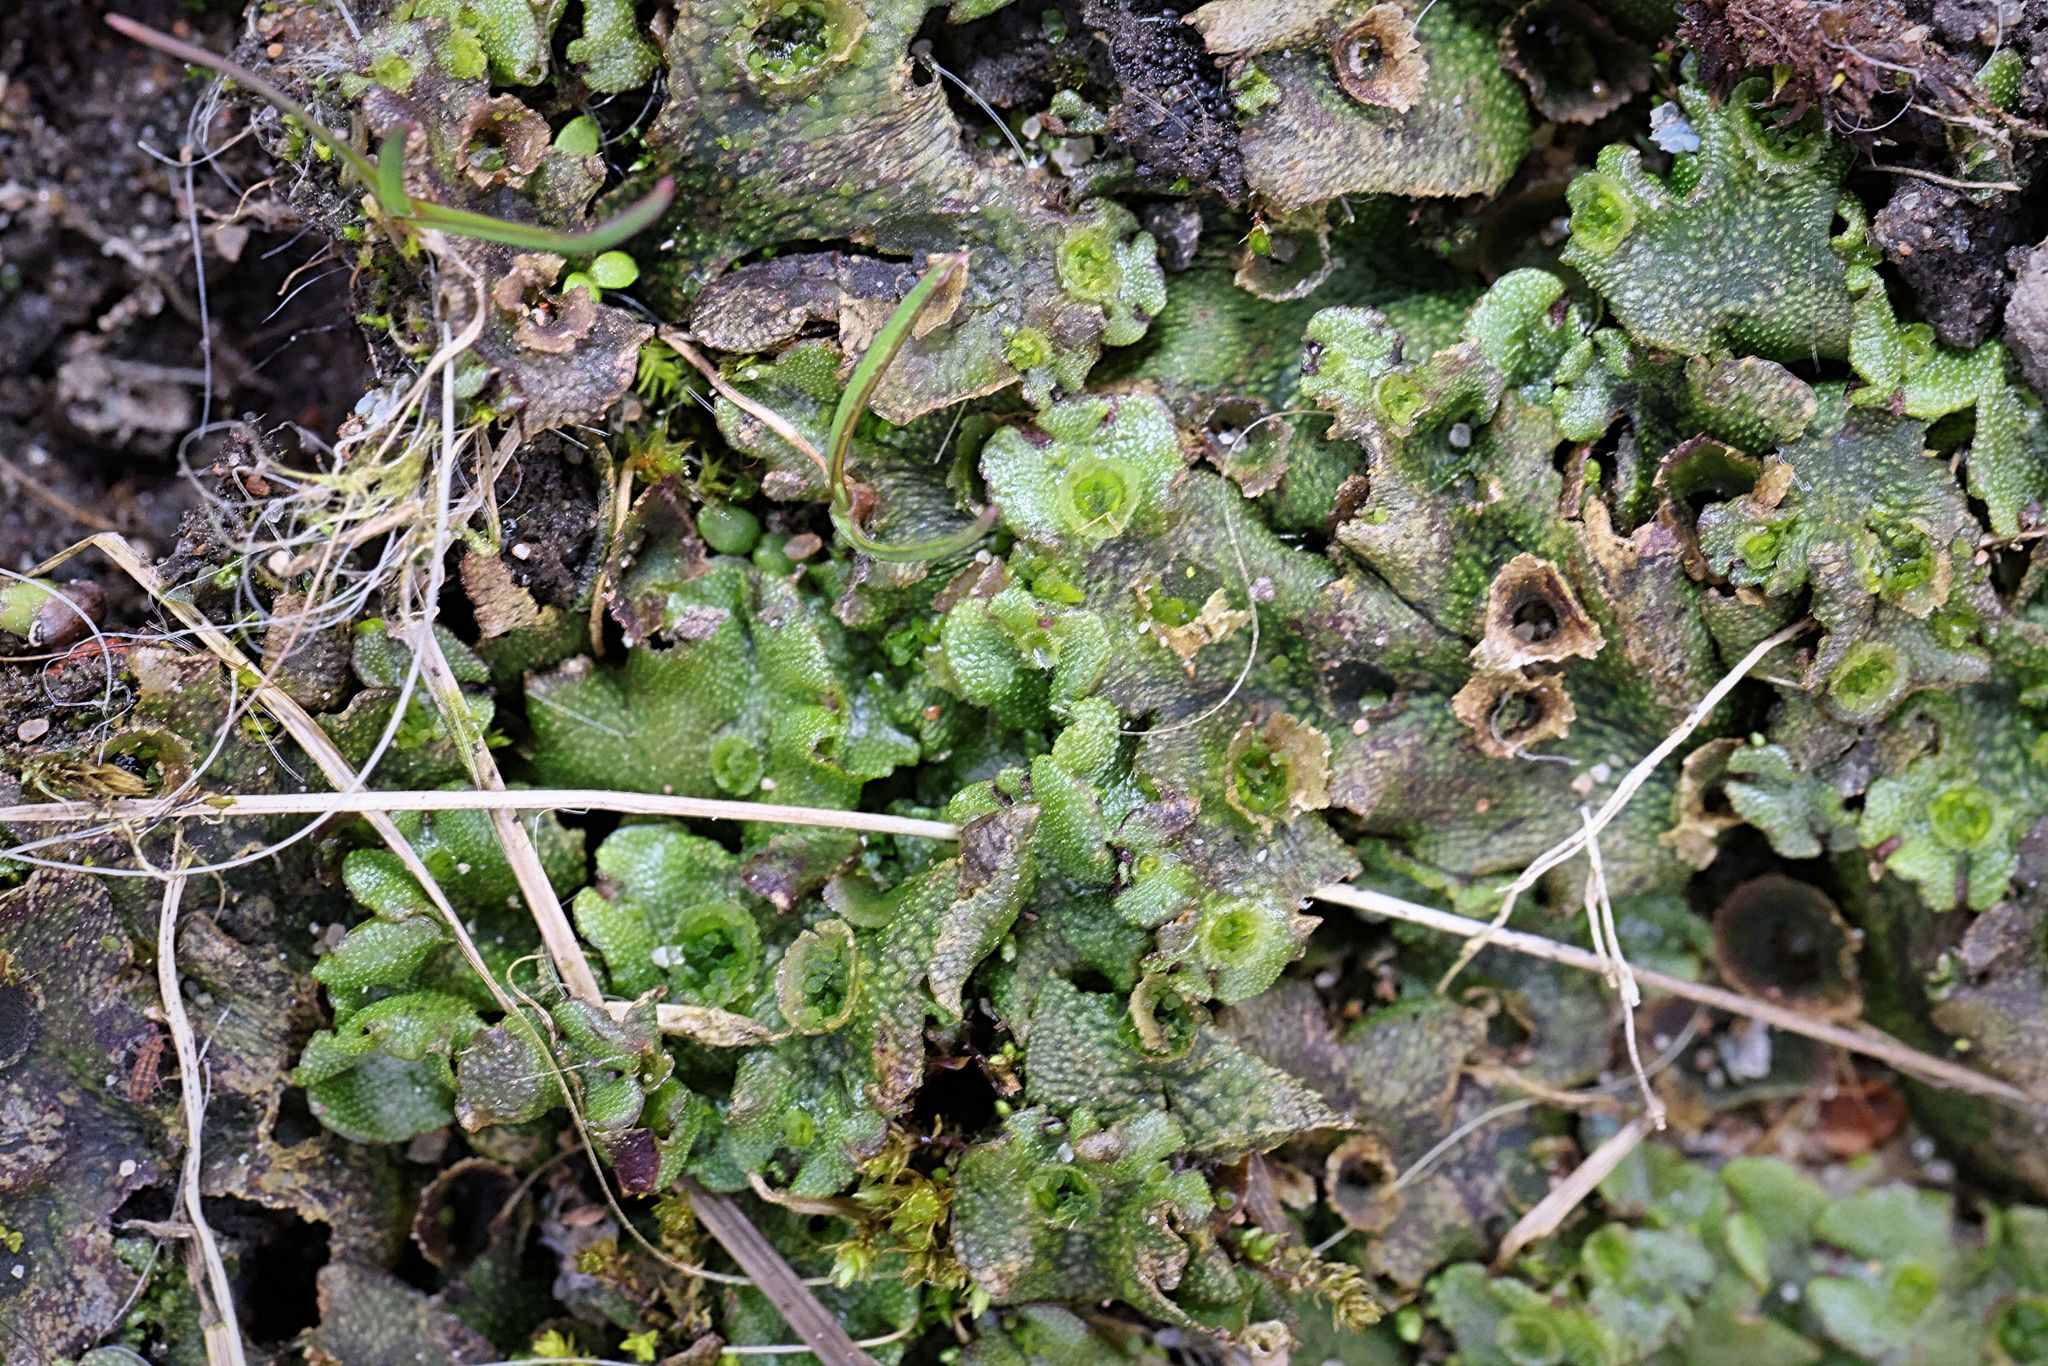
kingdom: Plantae
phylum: Marchantiophyta
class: Marchantiopsida
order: Marchantiales
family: Marchantiaceae
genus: Marchantia
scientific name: Marchantia polymorpha
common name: Common liverwort
